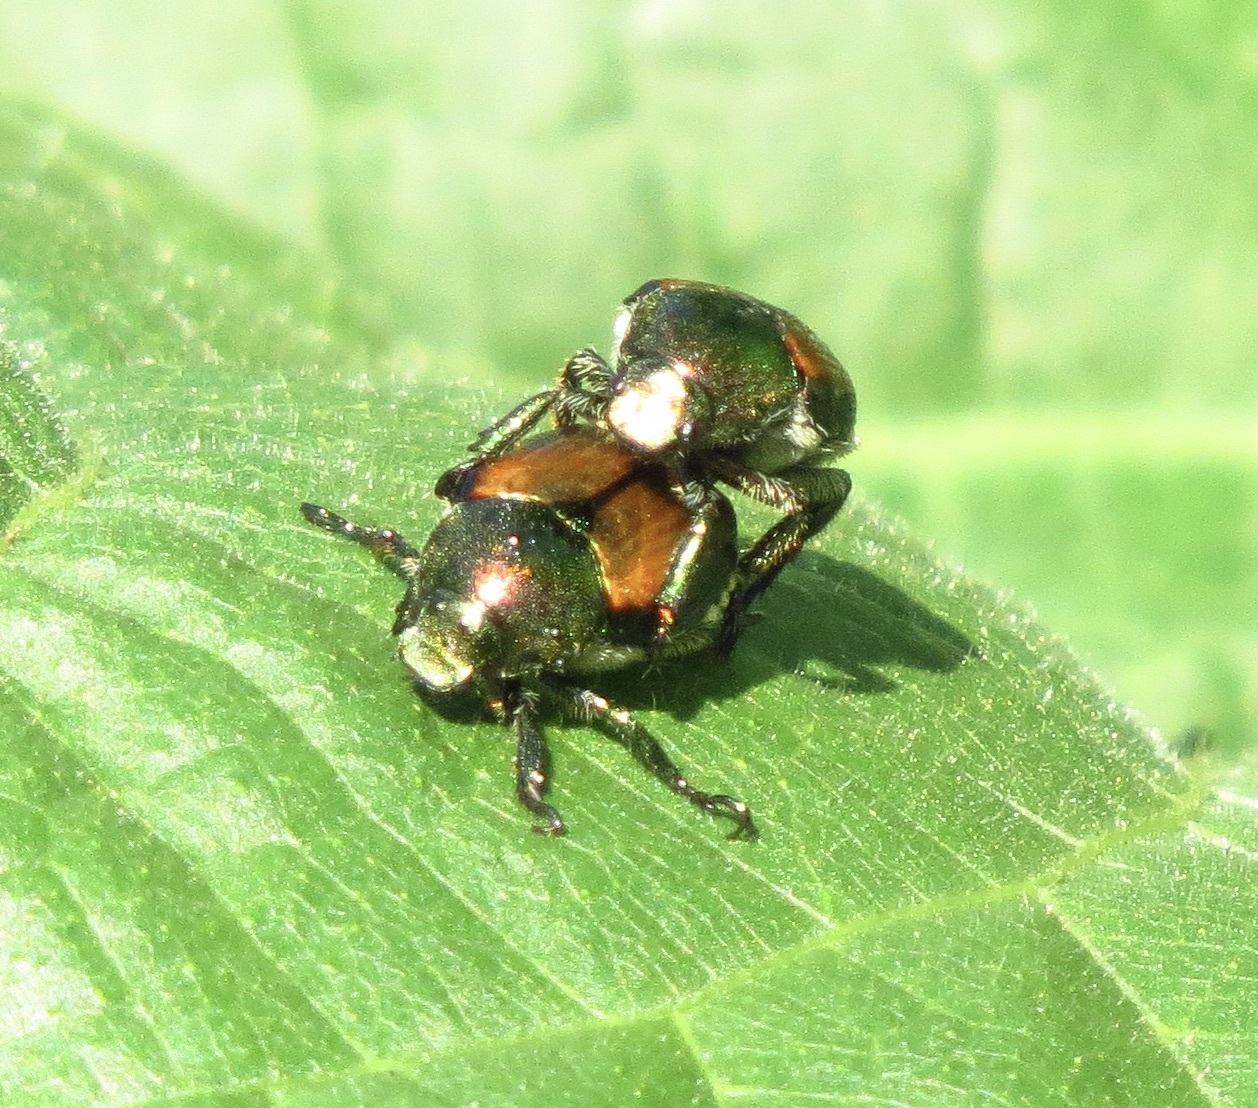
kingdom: Animalia
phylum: Arthropoda
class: Insecta
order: Coleoptera
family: Scarabaeidae
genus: Popillia
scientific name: Popillia japonica
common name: Japanese beetle
